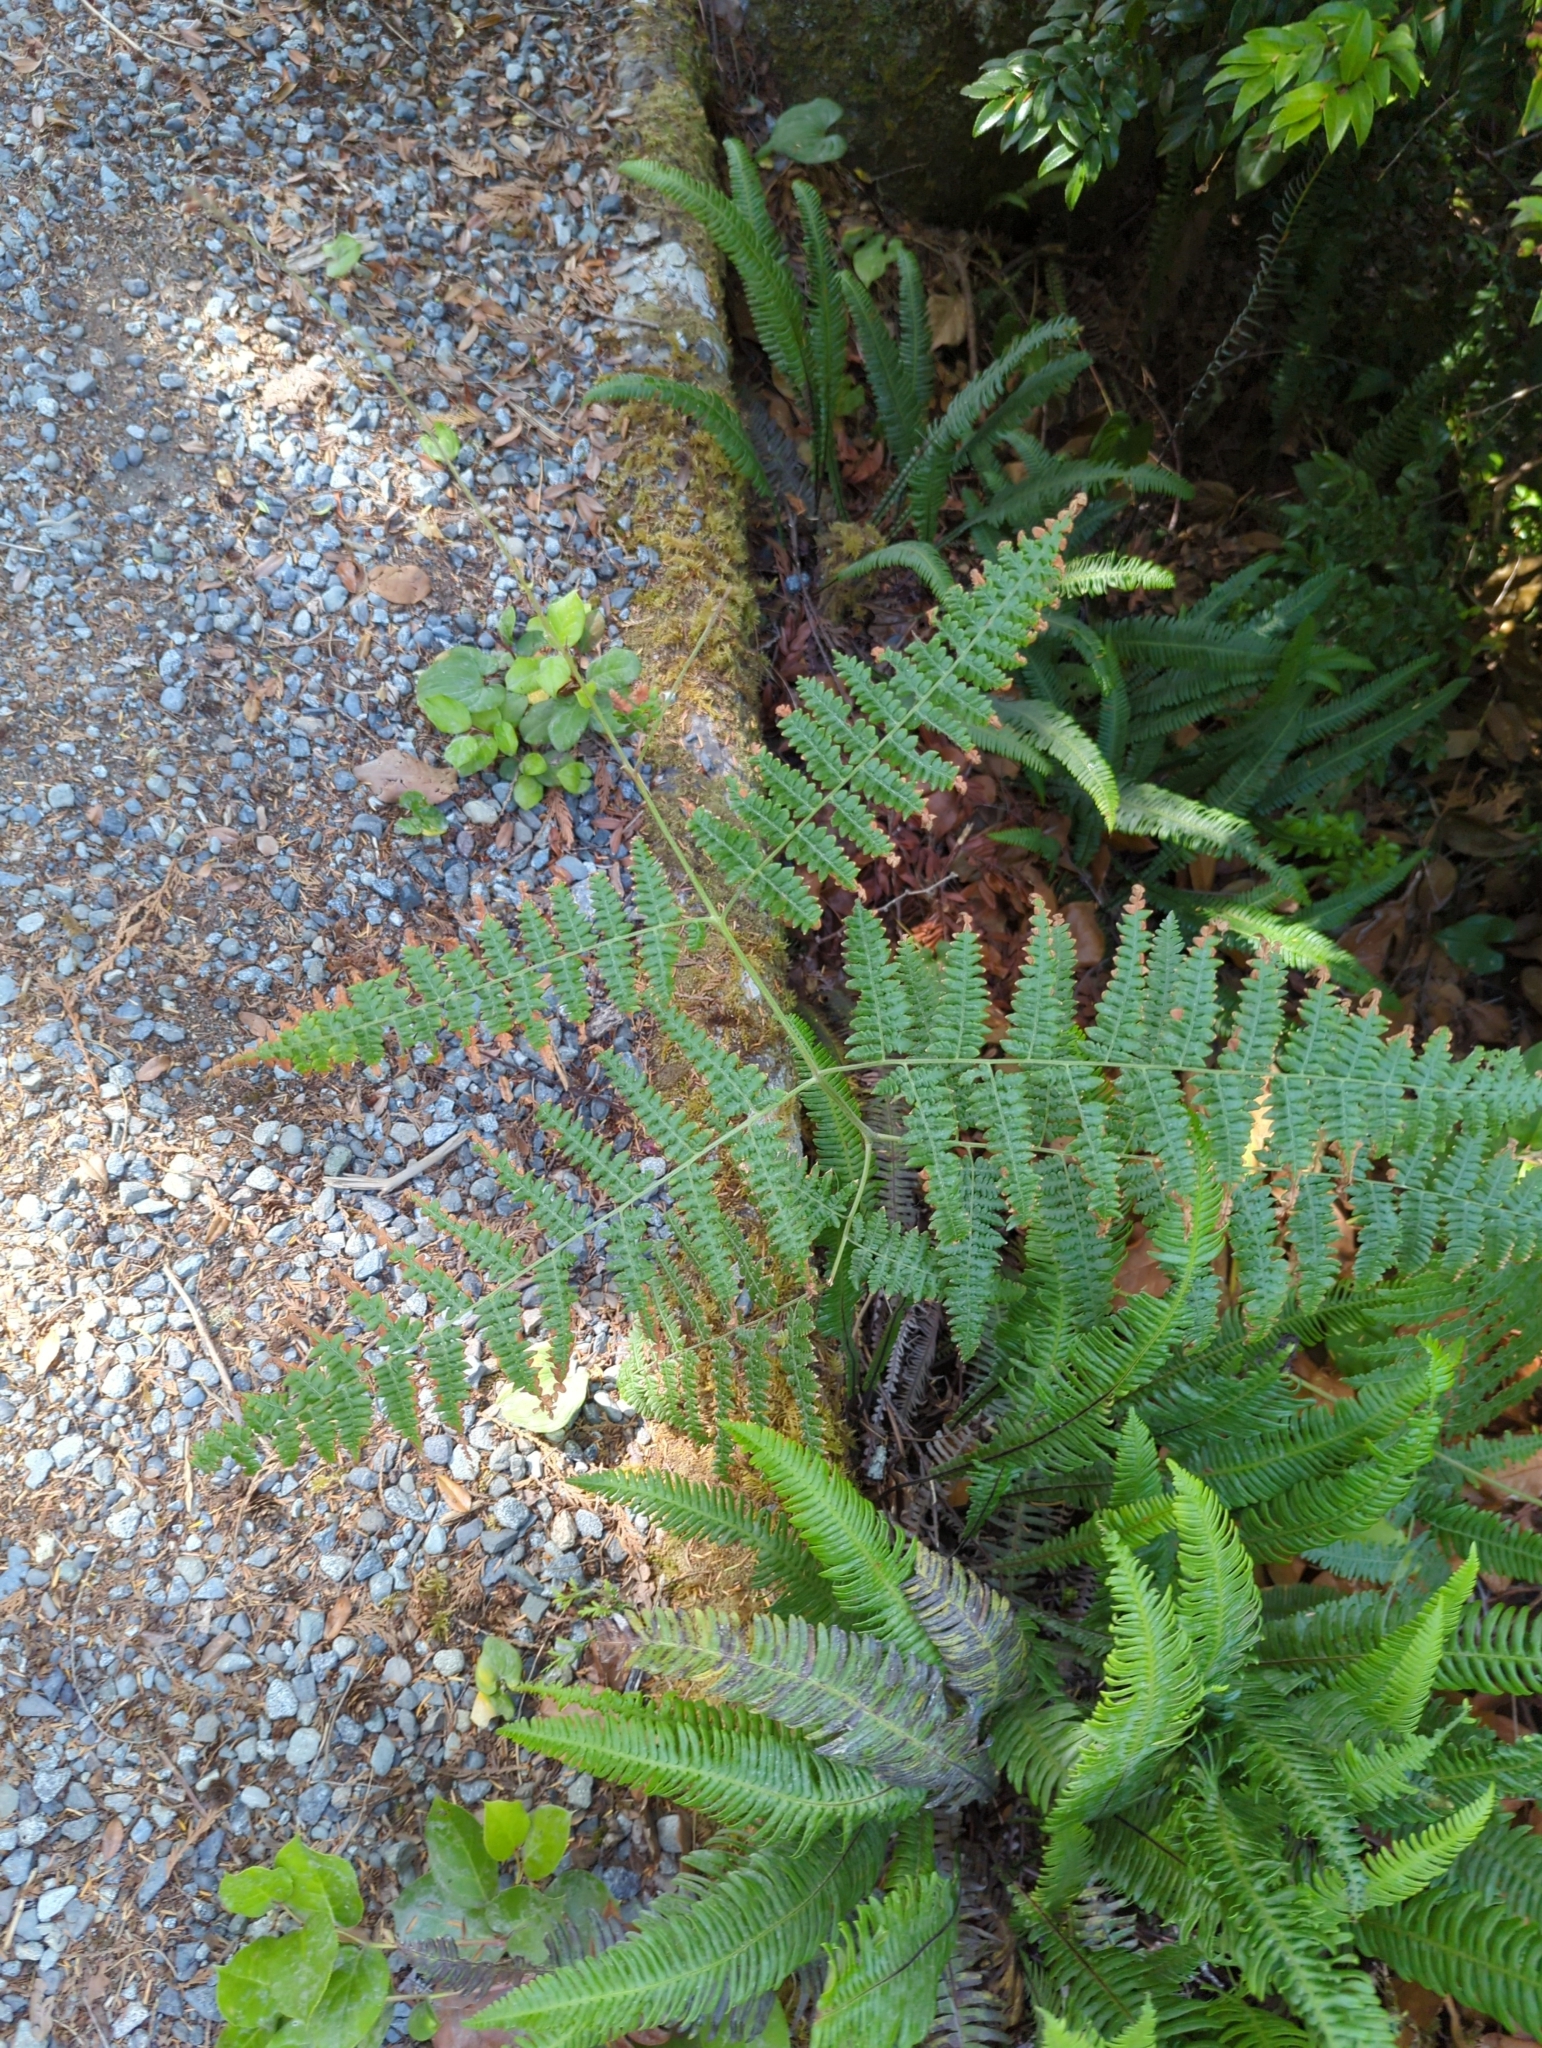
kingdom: Plantae
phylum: Tracheophyta
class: Polypodiopsida
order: Polypodiales
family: Dennstaedtiaceae
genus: Pteridium
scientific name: Pteridium aquilinum
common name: Bracken
